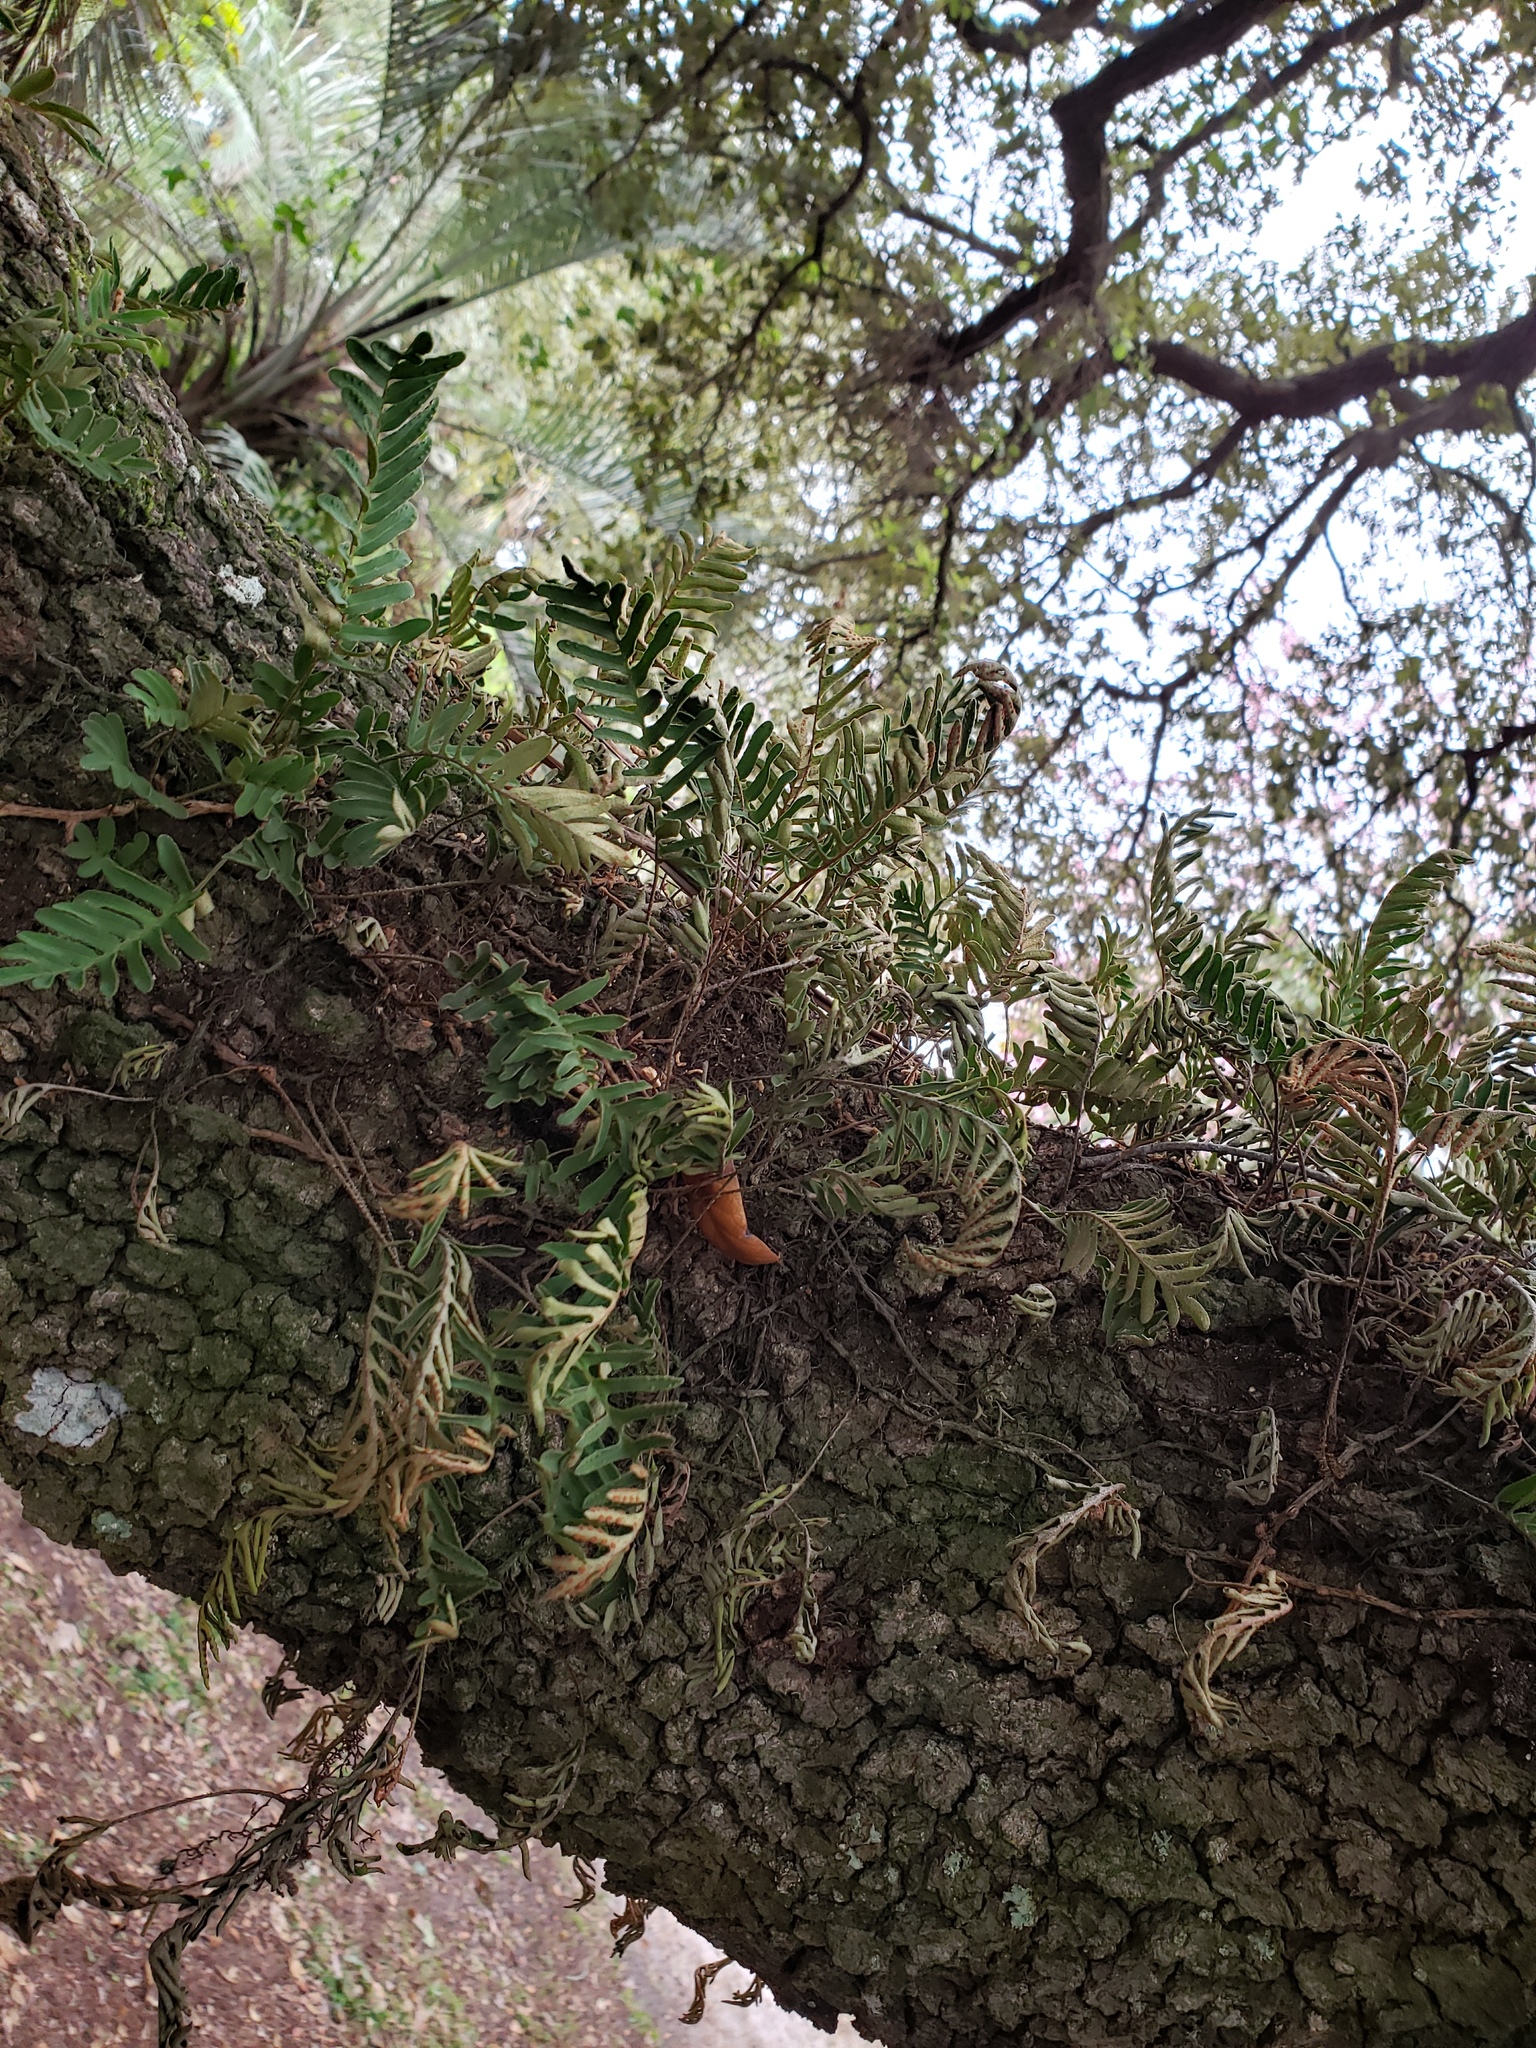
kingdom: Plantae
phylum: Tracheophyta
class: Polypodiopsida
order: Polypodiales
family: Polypodiaceae
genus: Pleopeltis
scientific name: Pleopeltis michauxiana
